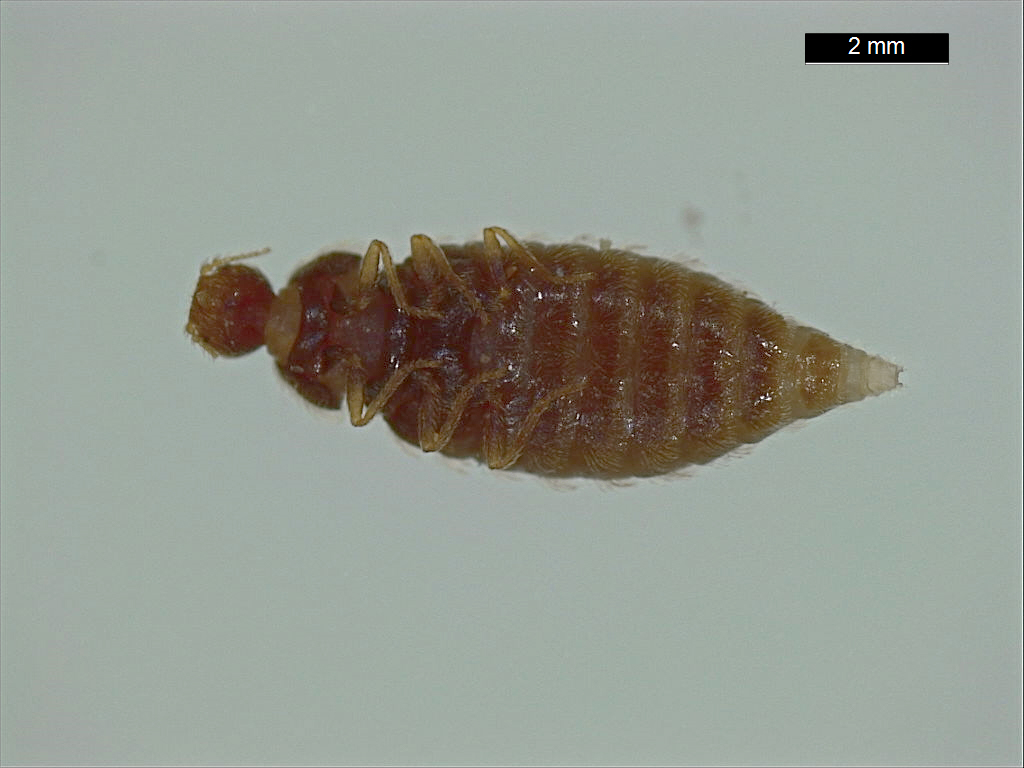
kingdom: Animalia
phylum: Arthropoda
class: Insecta
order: Coleoptera
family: Dermestidae
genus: Thylodrias
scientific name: Thylodrias contractus
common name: Odd beetle
